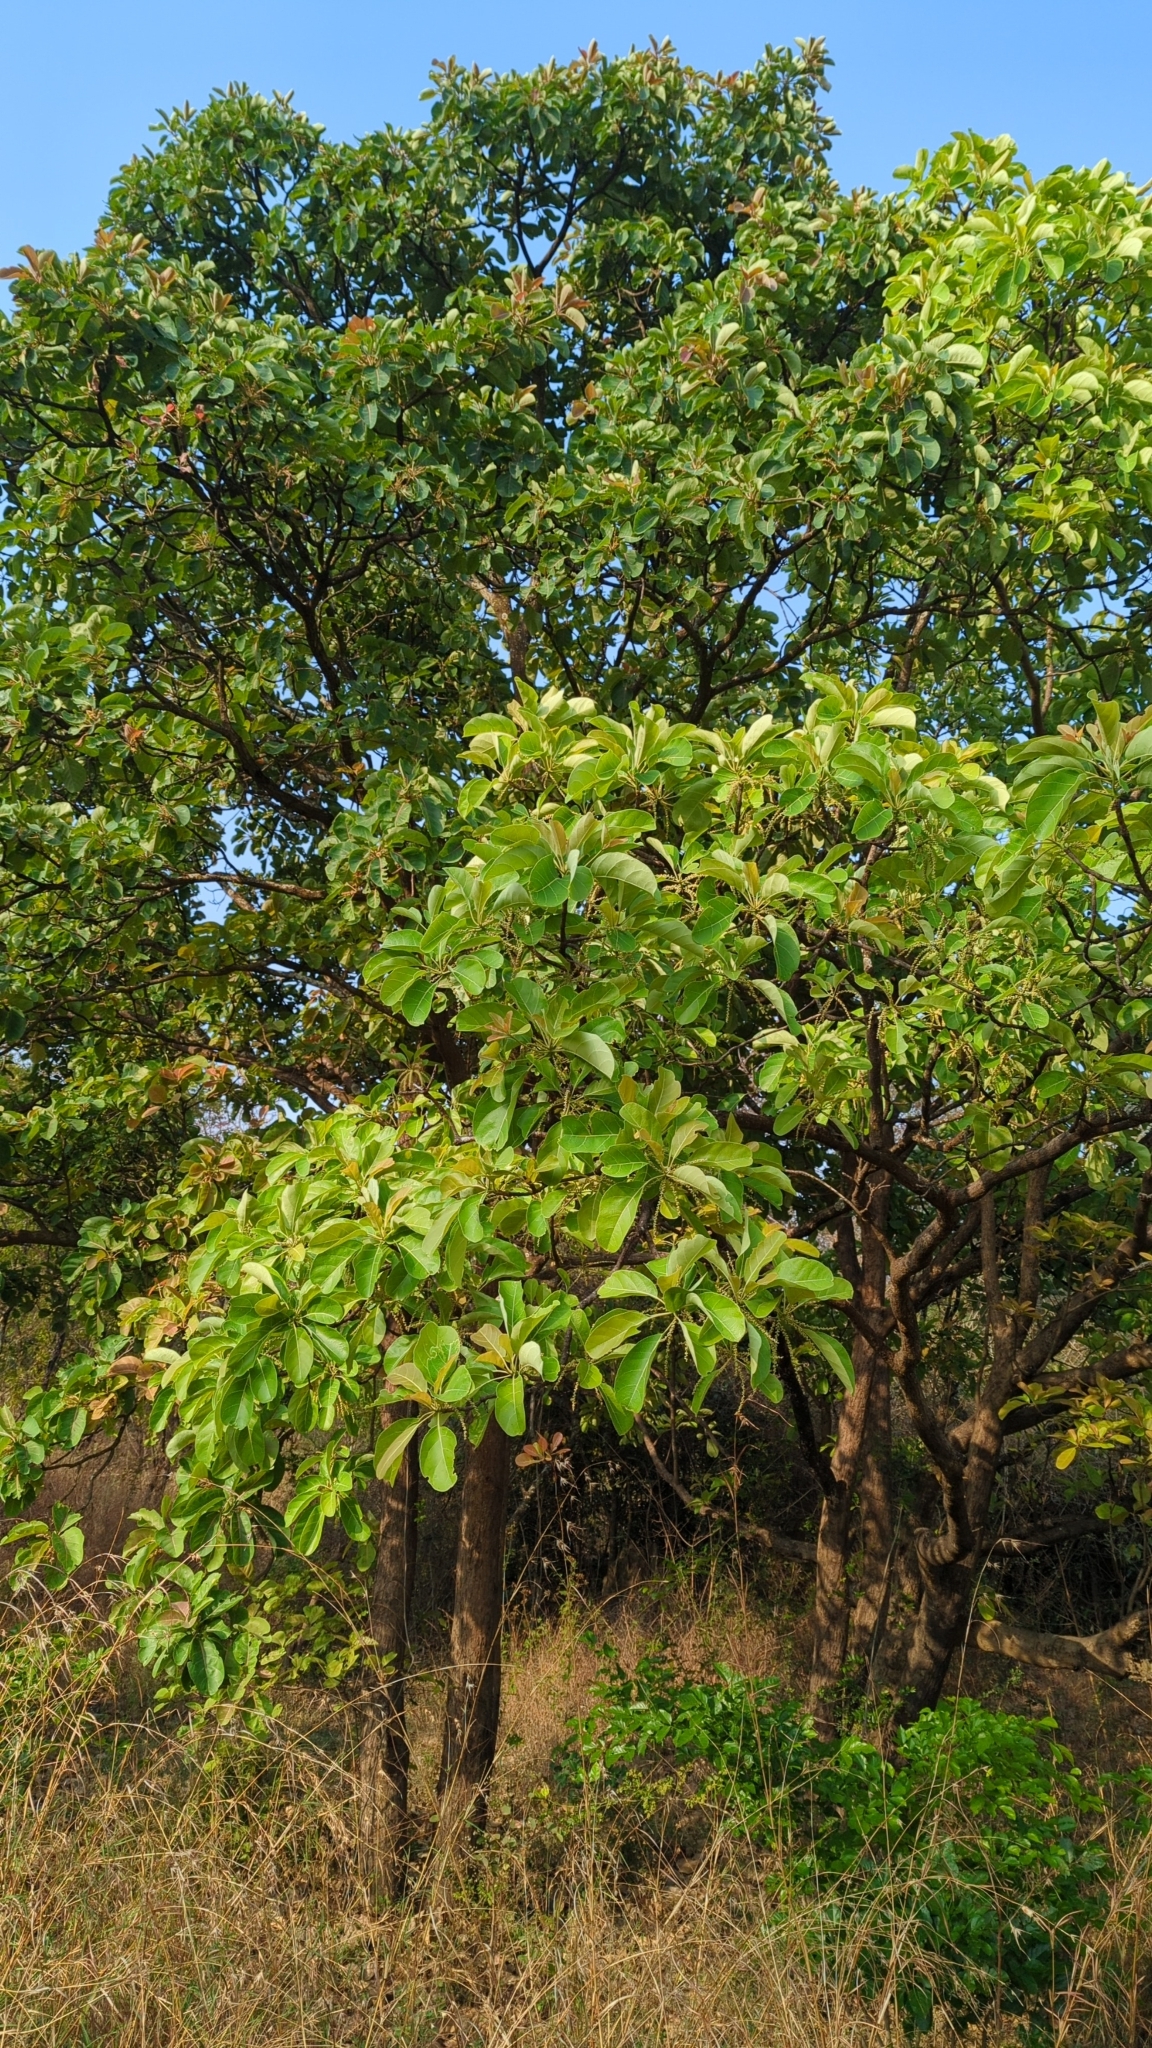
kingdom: Plantae
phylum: Tracheophyta
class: Magnoliopsida
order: Myrtales
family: Combretaceae
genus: Terminalia
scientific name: Terminalia bellirica
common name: Beleric myrobalan
